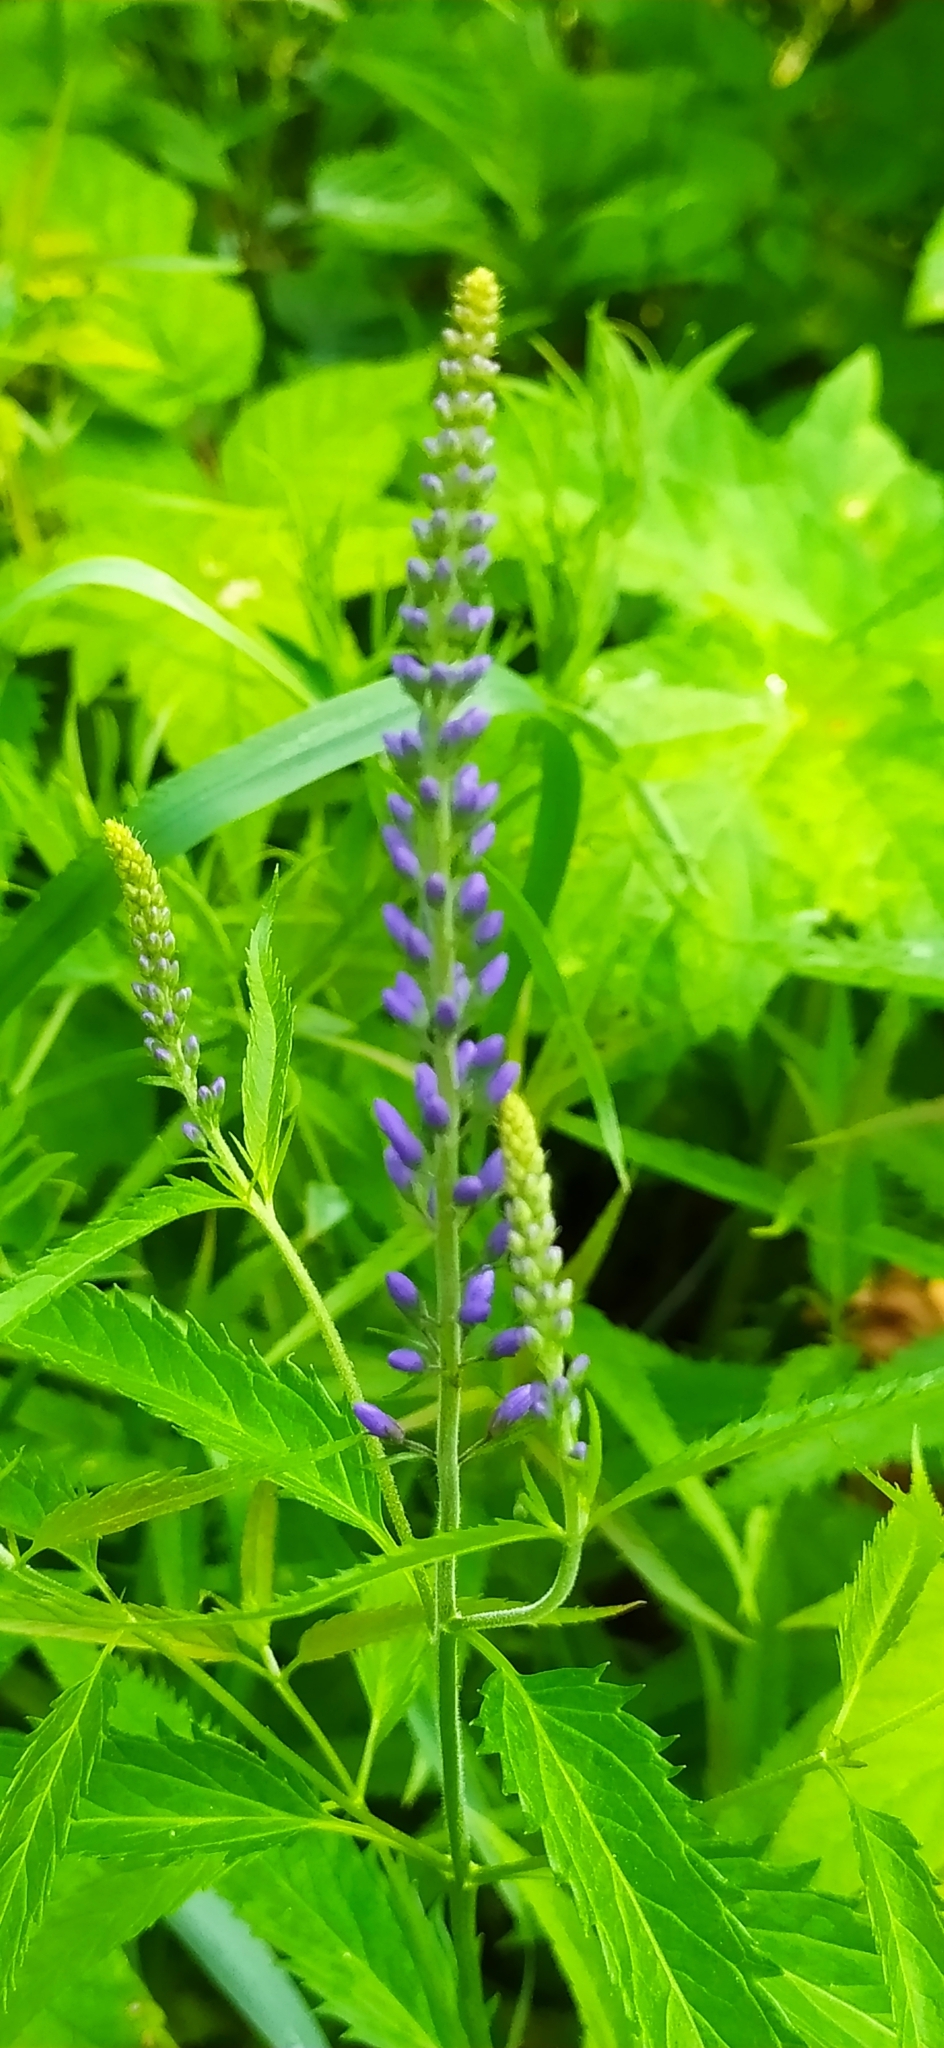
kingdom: Plantae
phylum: Tracheophyta
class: Magnoliopsida
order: Lamiales
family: Plantaginaceae
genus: Veronica
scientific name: Veronica longifolia
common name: Garden speedwell
